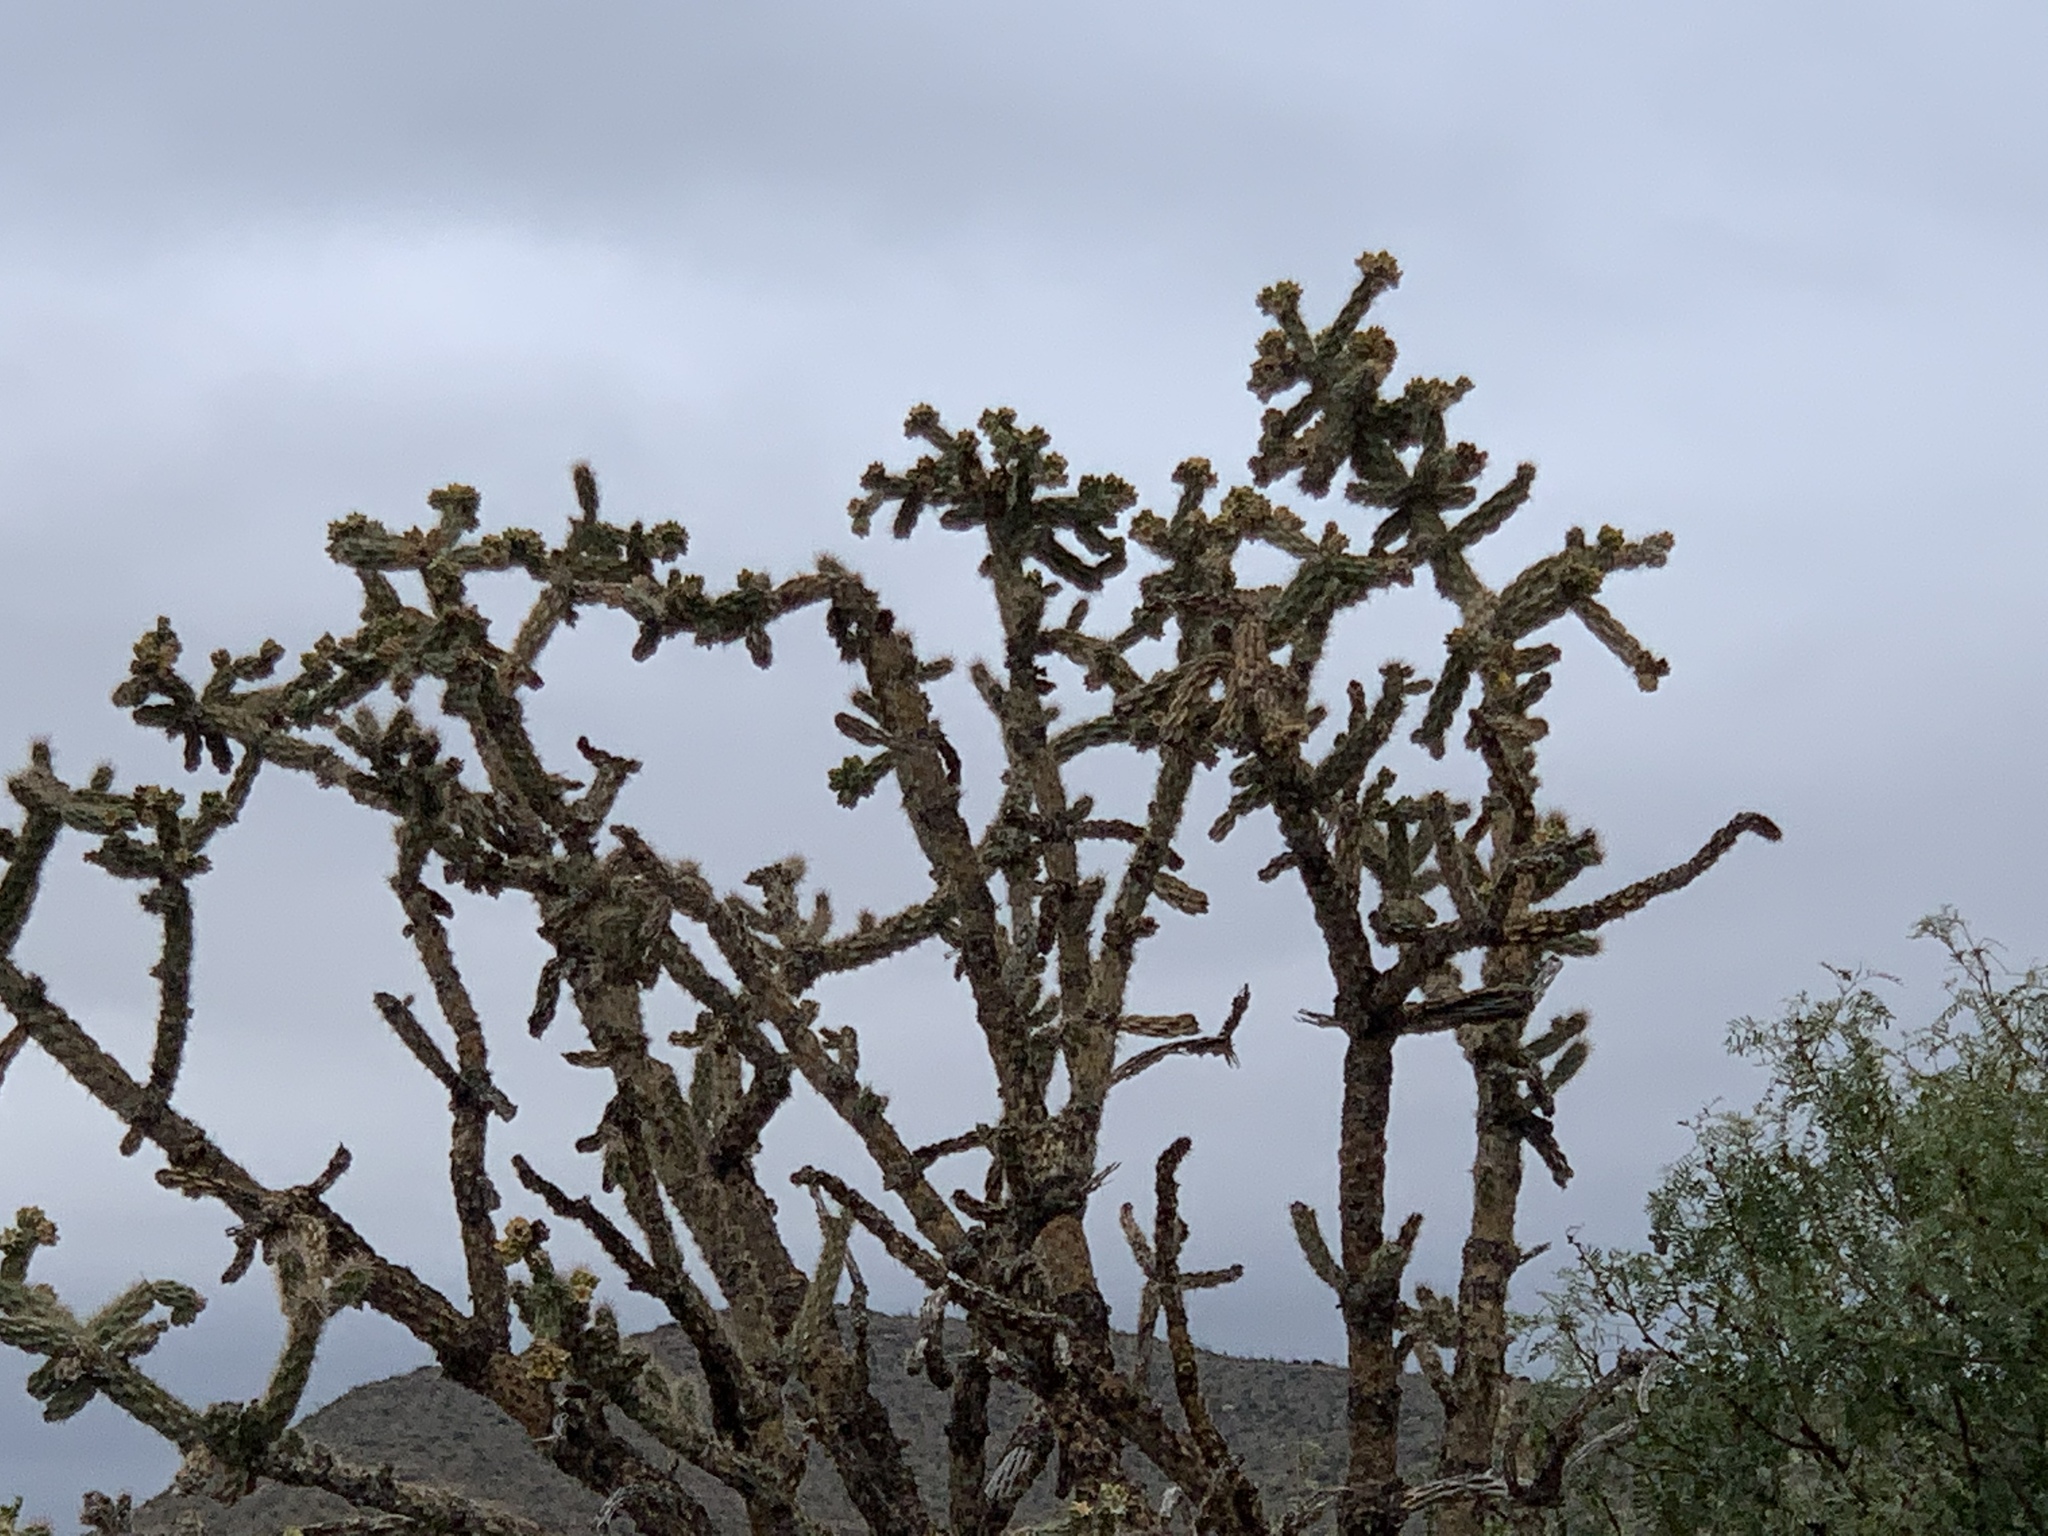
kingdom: Plantae
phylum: Tracheophyta
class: Magnoliopsida
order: Caryophyllales
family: Cactaceae
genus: Cylindropuntia
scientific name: Cylindropuntia imbricata
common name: Candelabrum cactus
